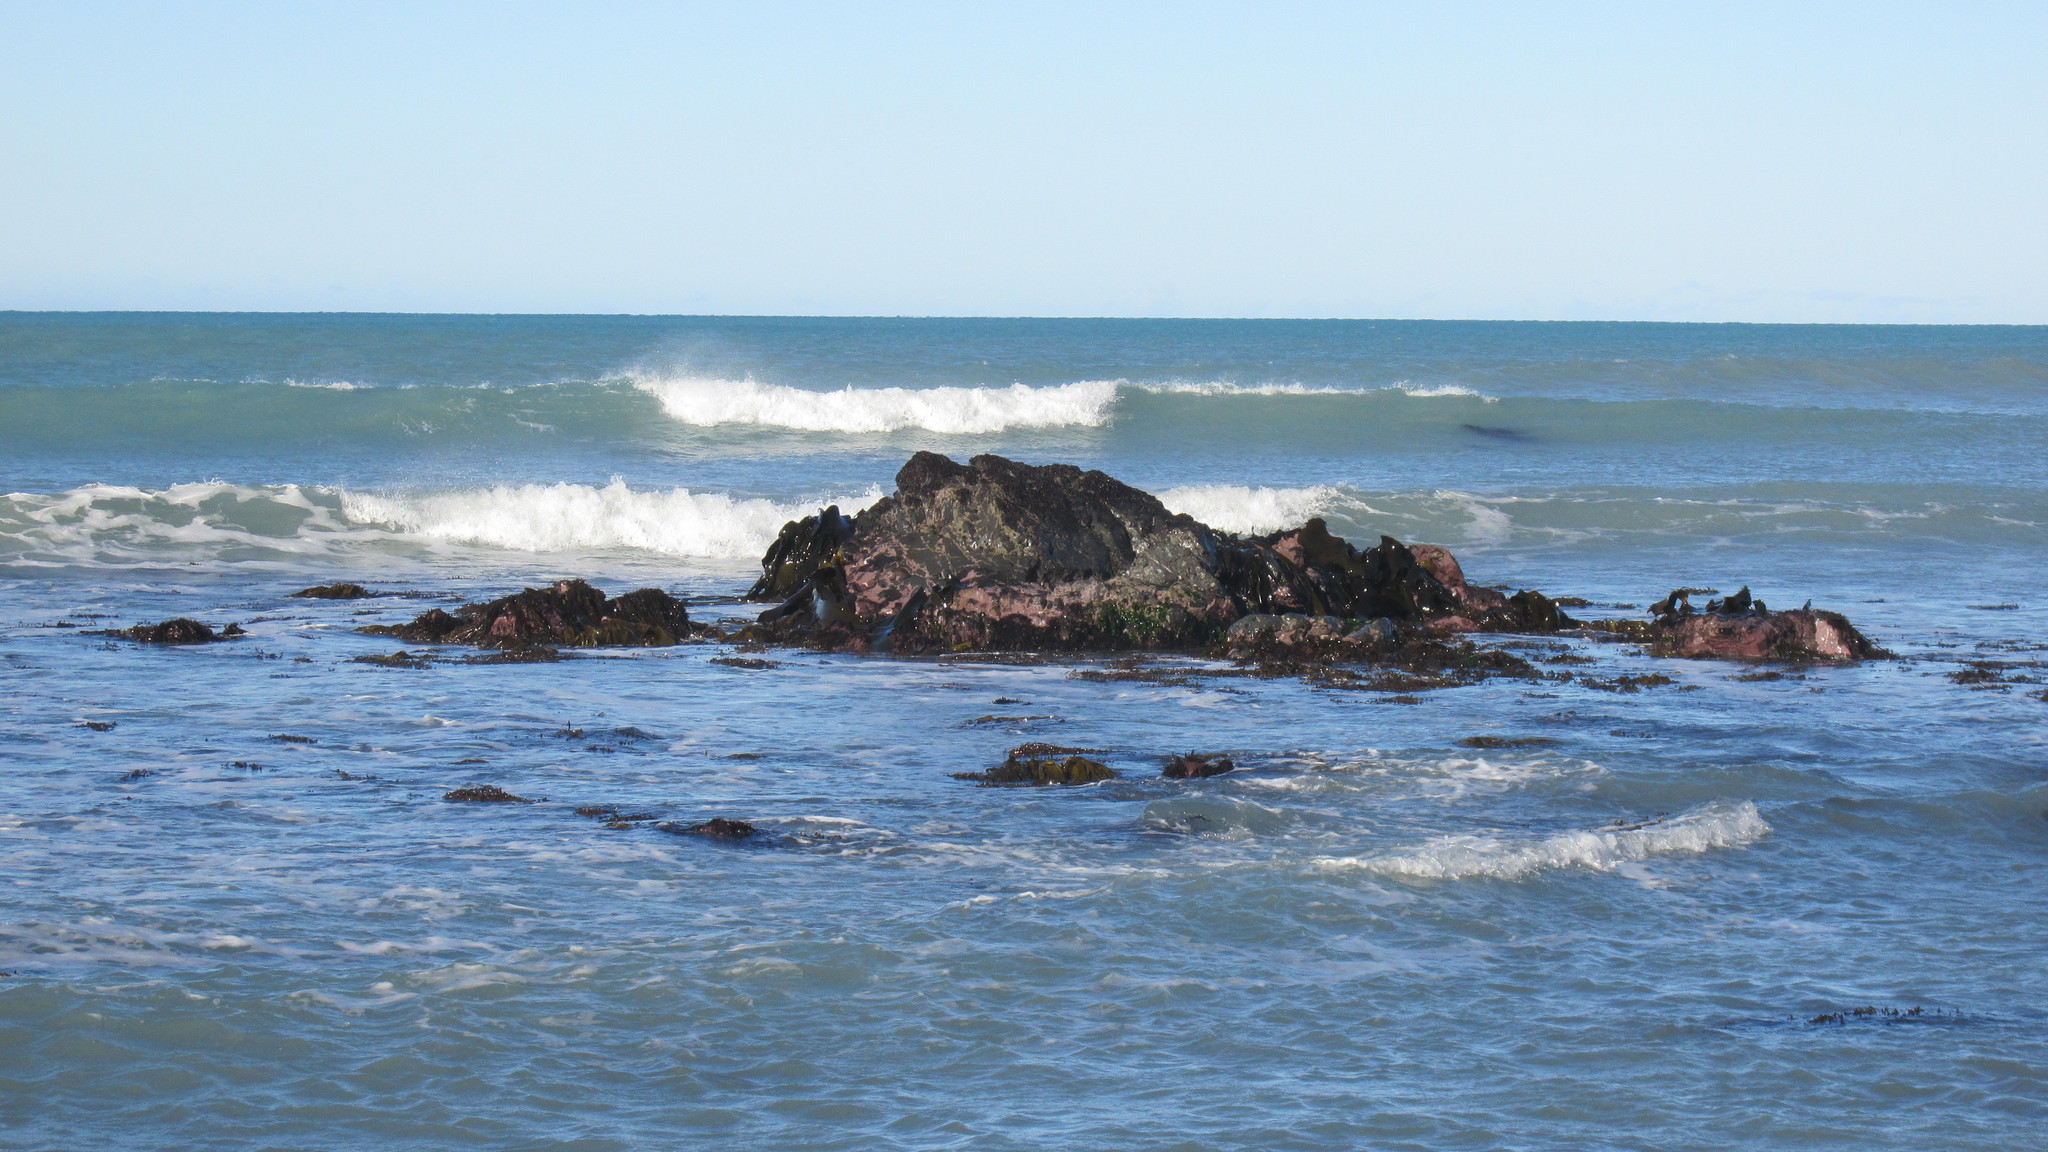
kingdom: Chromista
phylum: Ochrophyta
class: Phaeophyceae
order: Fucales
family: Durvillaeaceae
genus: Durvillaea
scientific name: Durvillaea antarctica
